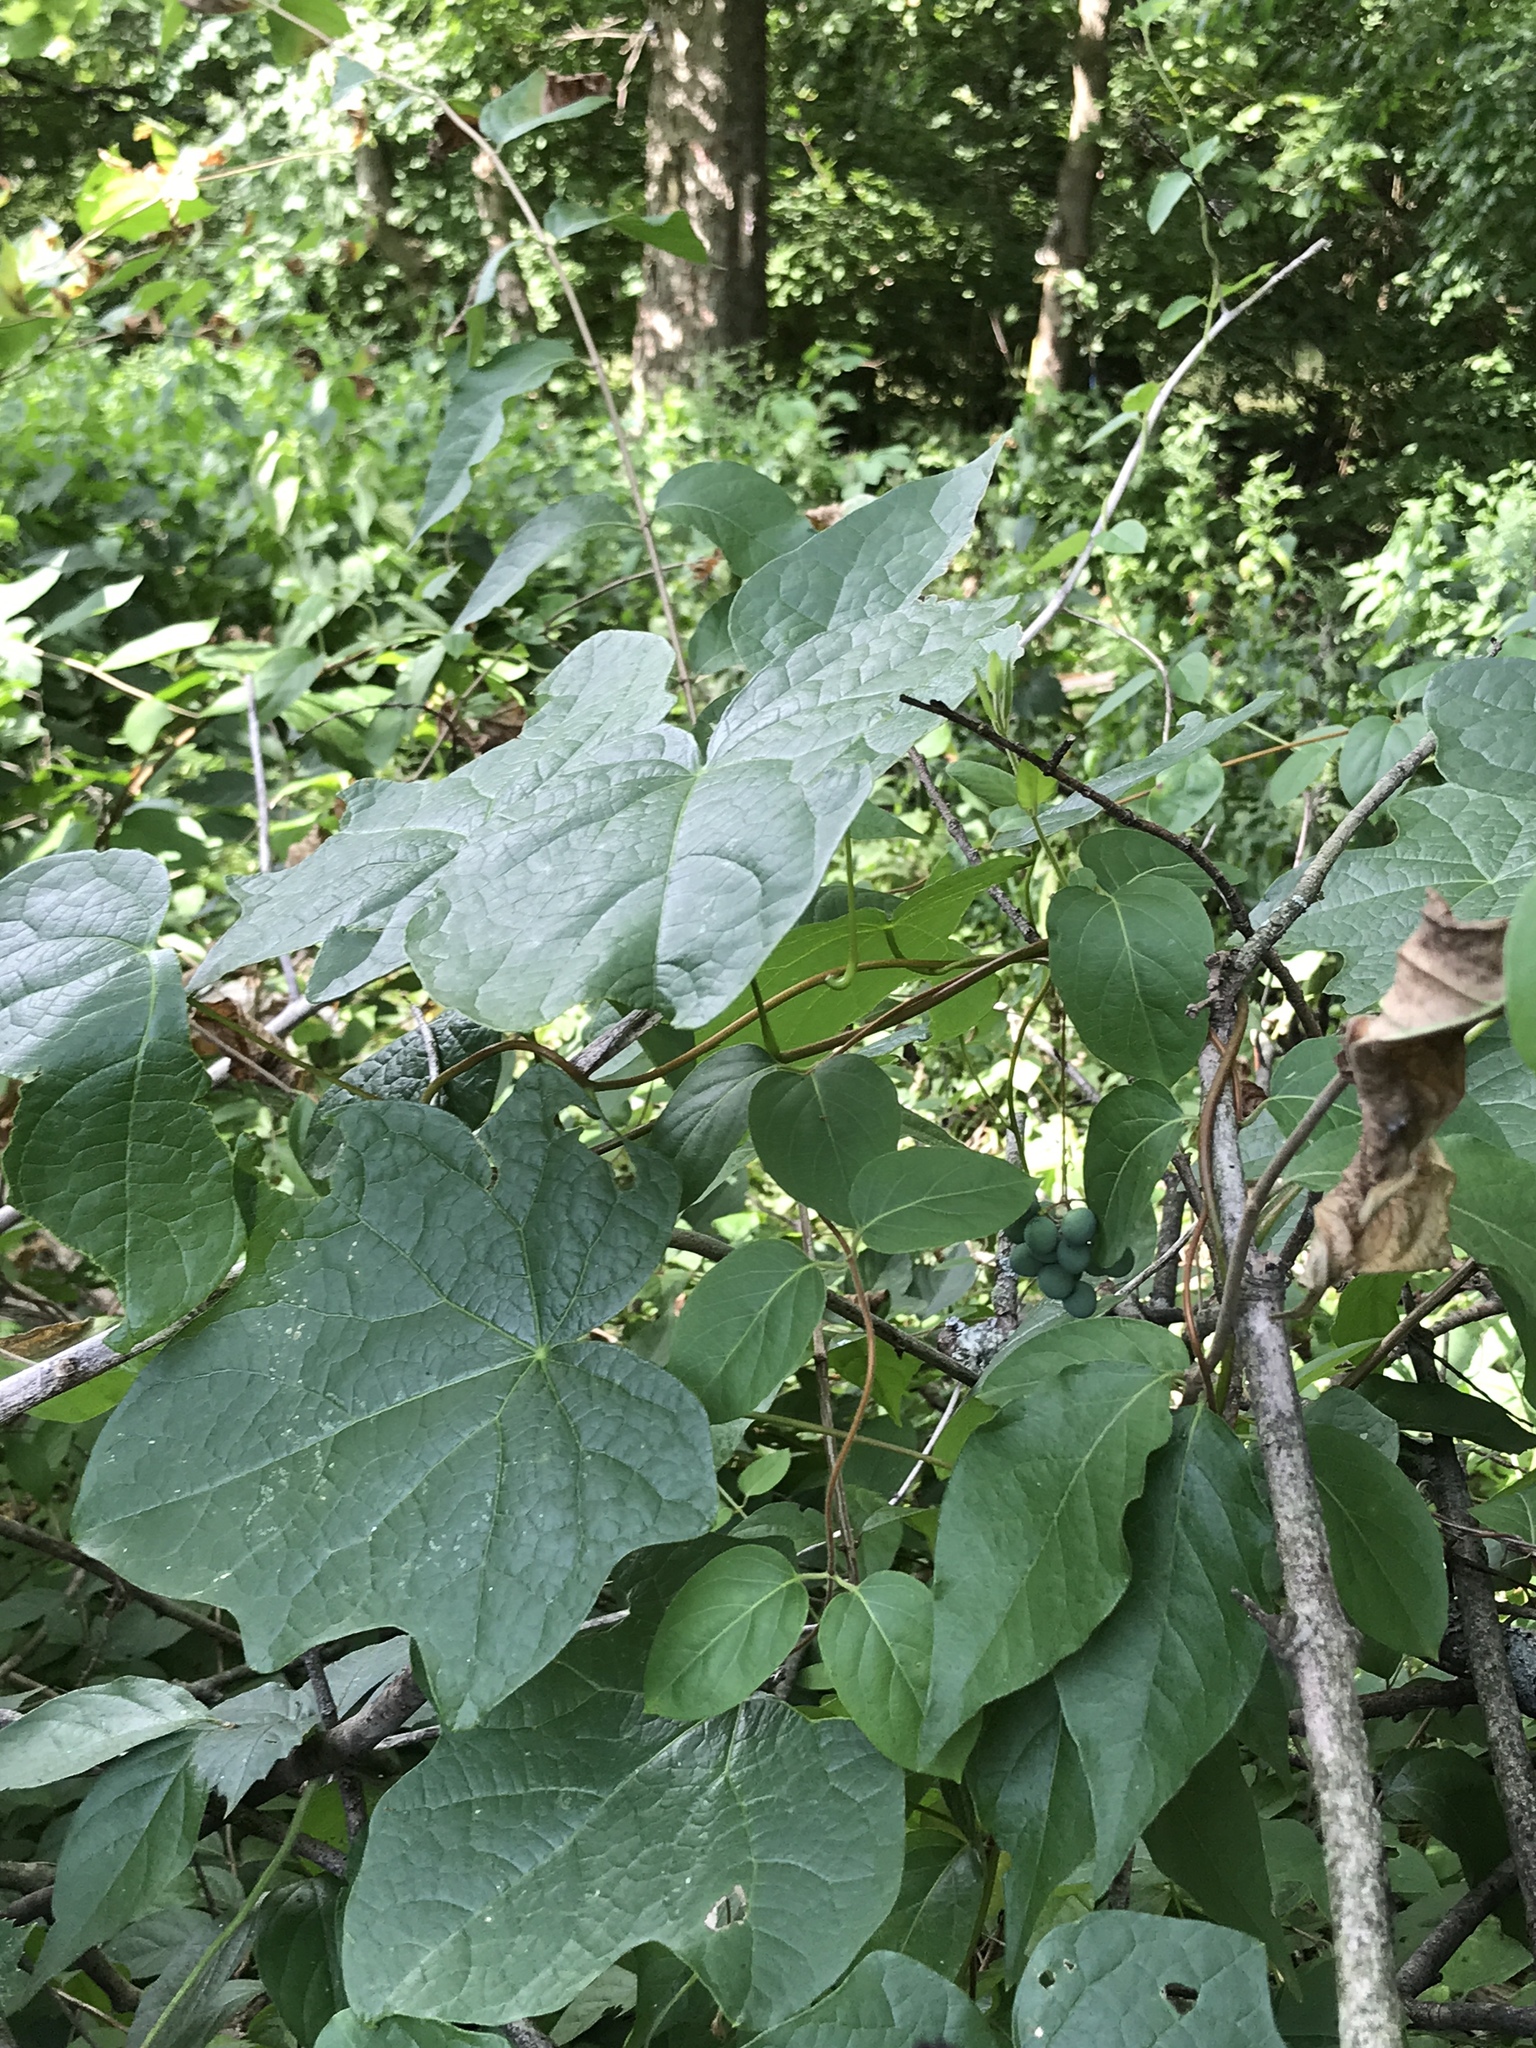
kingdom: Plantae
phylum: Tracheophyta
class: Magnoliopsida
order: Ranunculales
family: Menispermaceae
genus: Menispermum
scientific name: Menispermum canadense
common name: Moonseed
